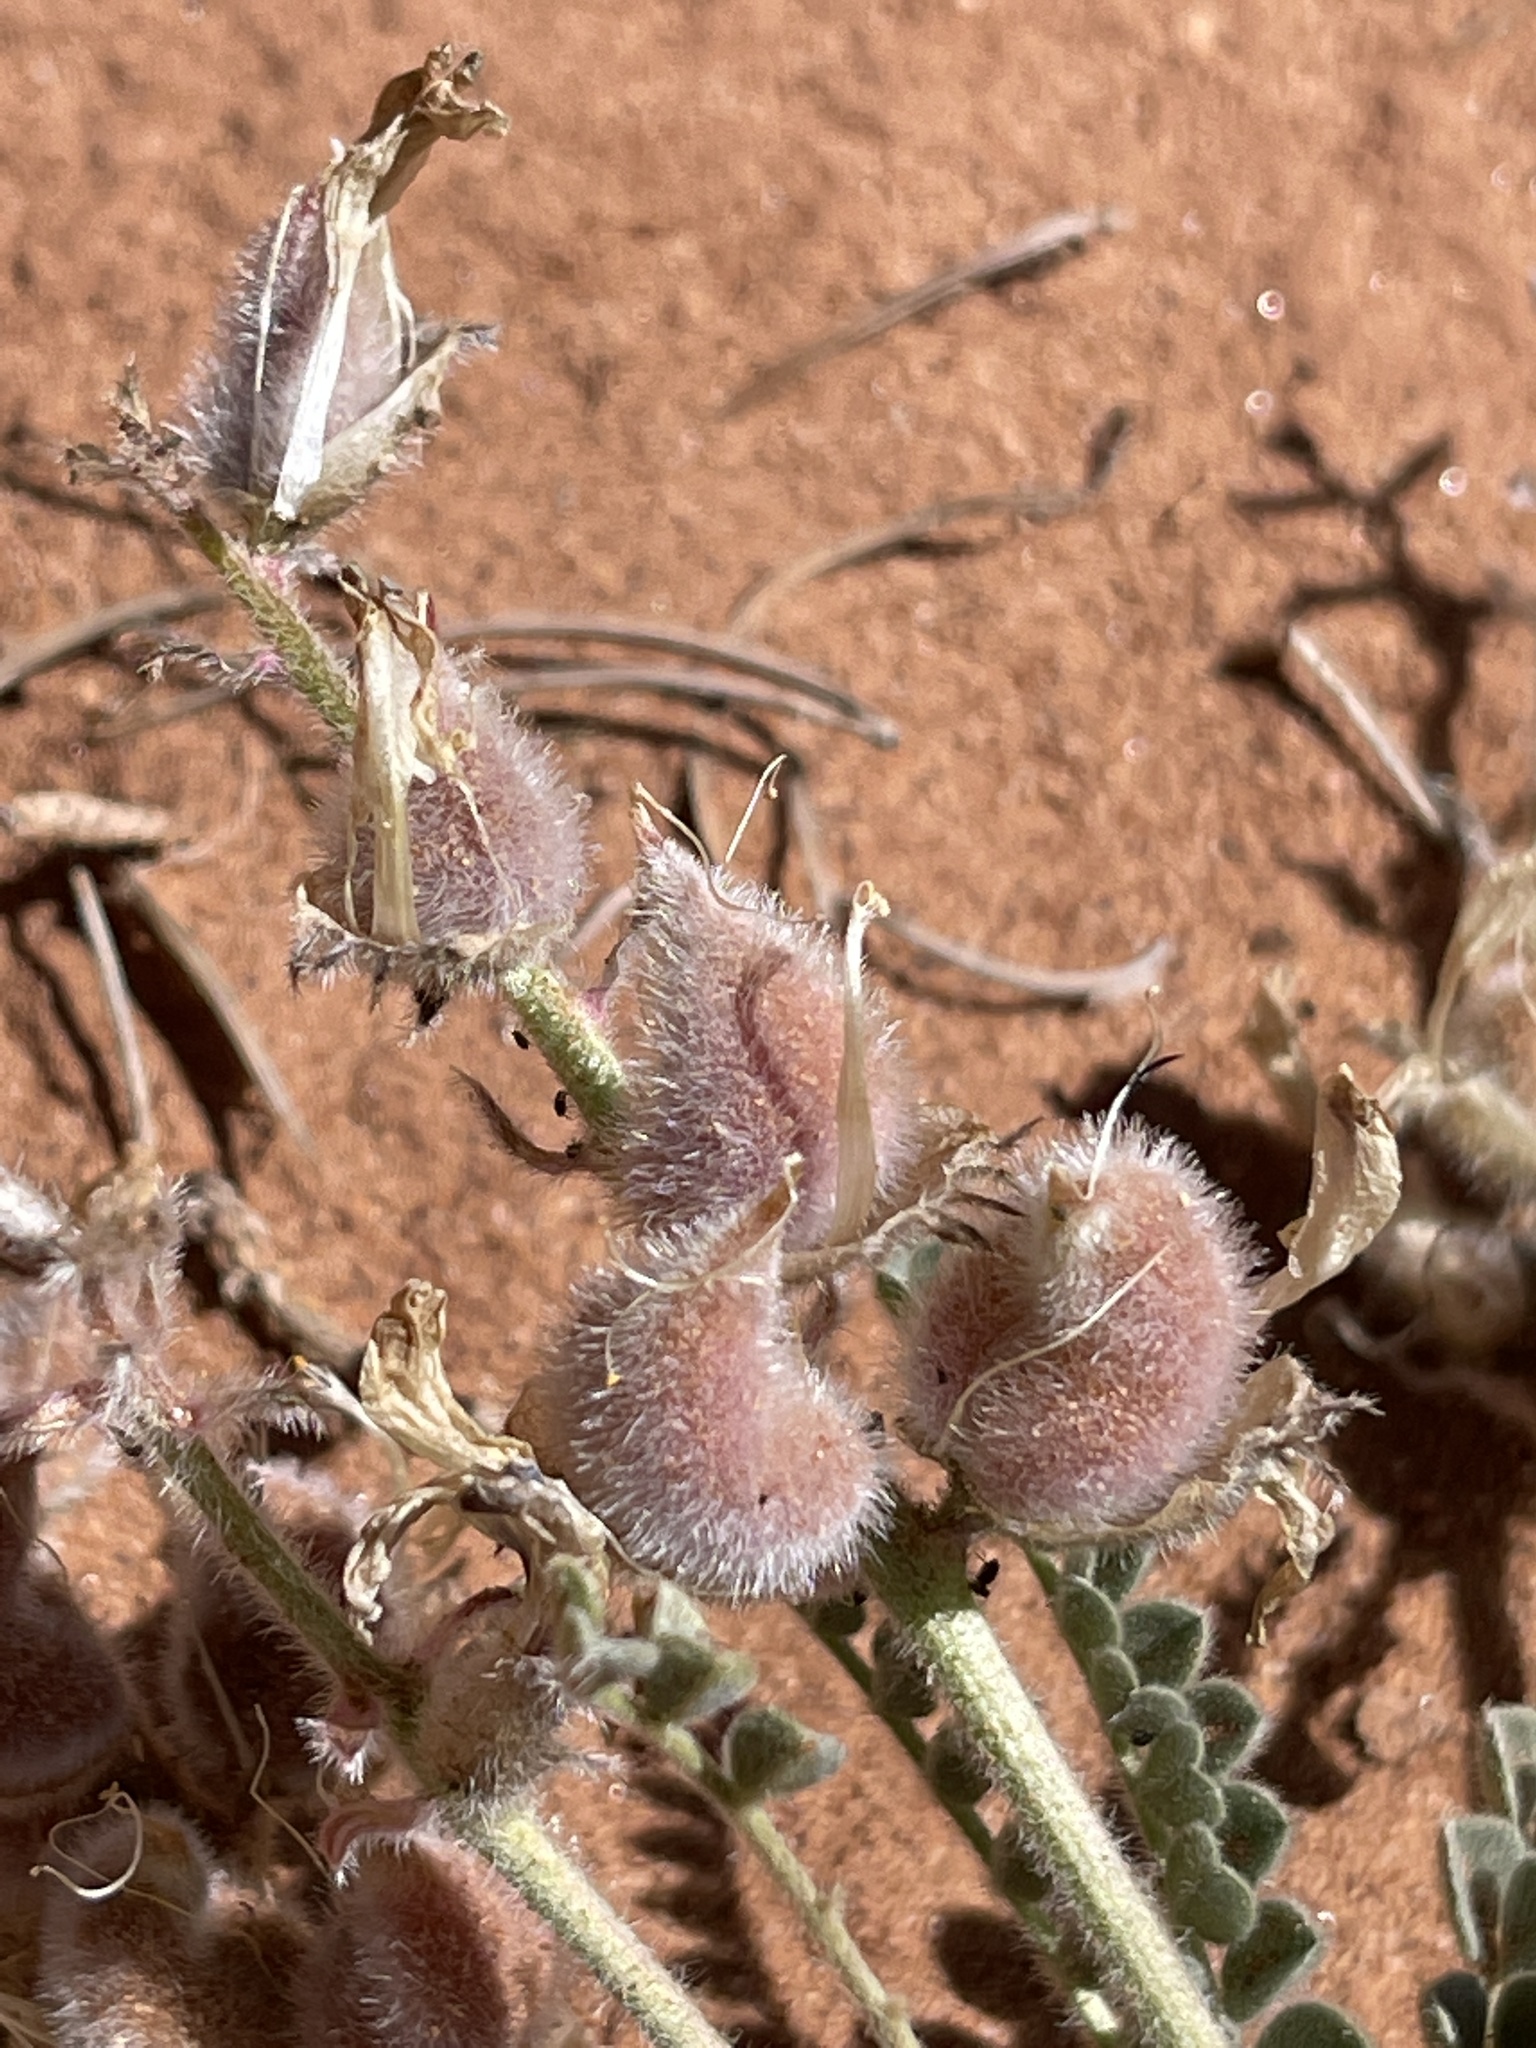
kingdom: Plantae
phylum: Tracheophyta
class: Magnoliopsida
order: Fabales
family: Fabaceae
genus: Astragalus
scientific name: Astragalus mollissimus
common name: Woolly locoweed
